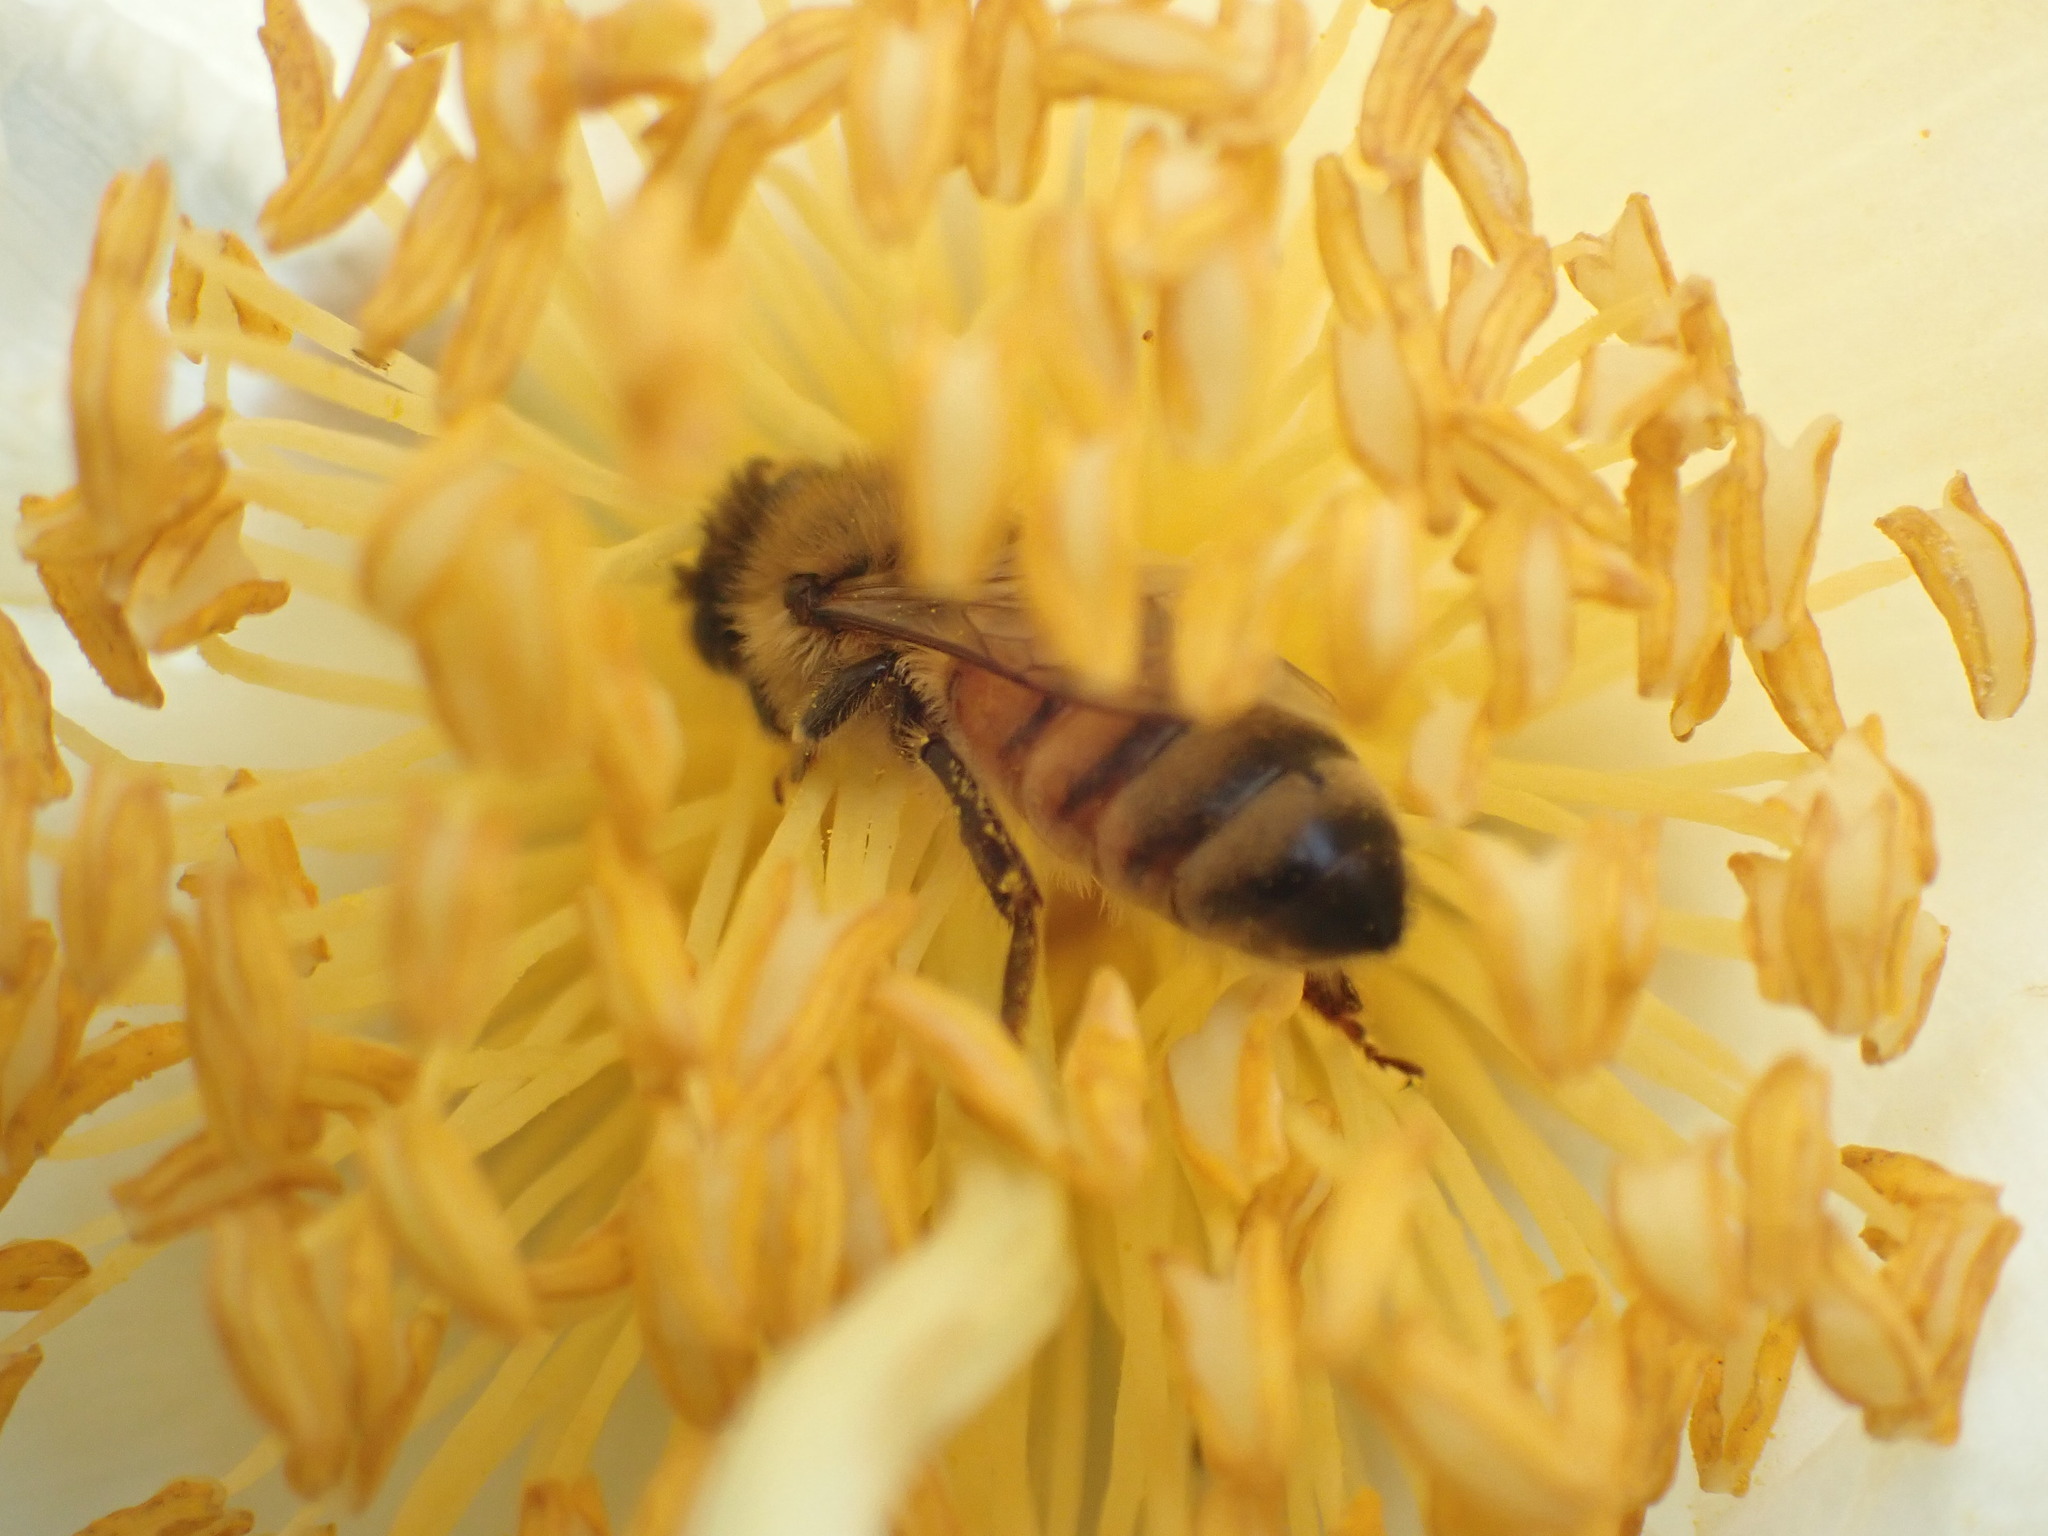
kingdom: Animalia
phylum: Arthropoda
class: Insecta
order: Hymenoptera
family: Apidae
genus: Apis
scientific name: Apis mellifera
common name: Honey bee
